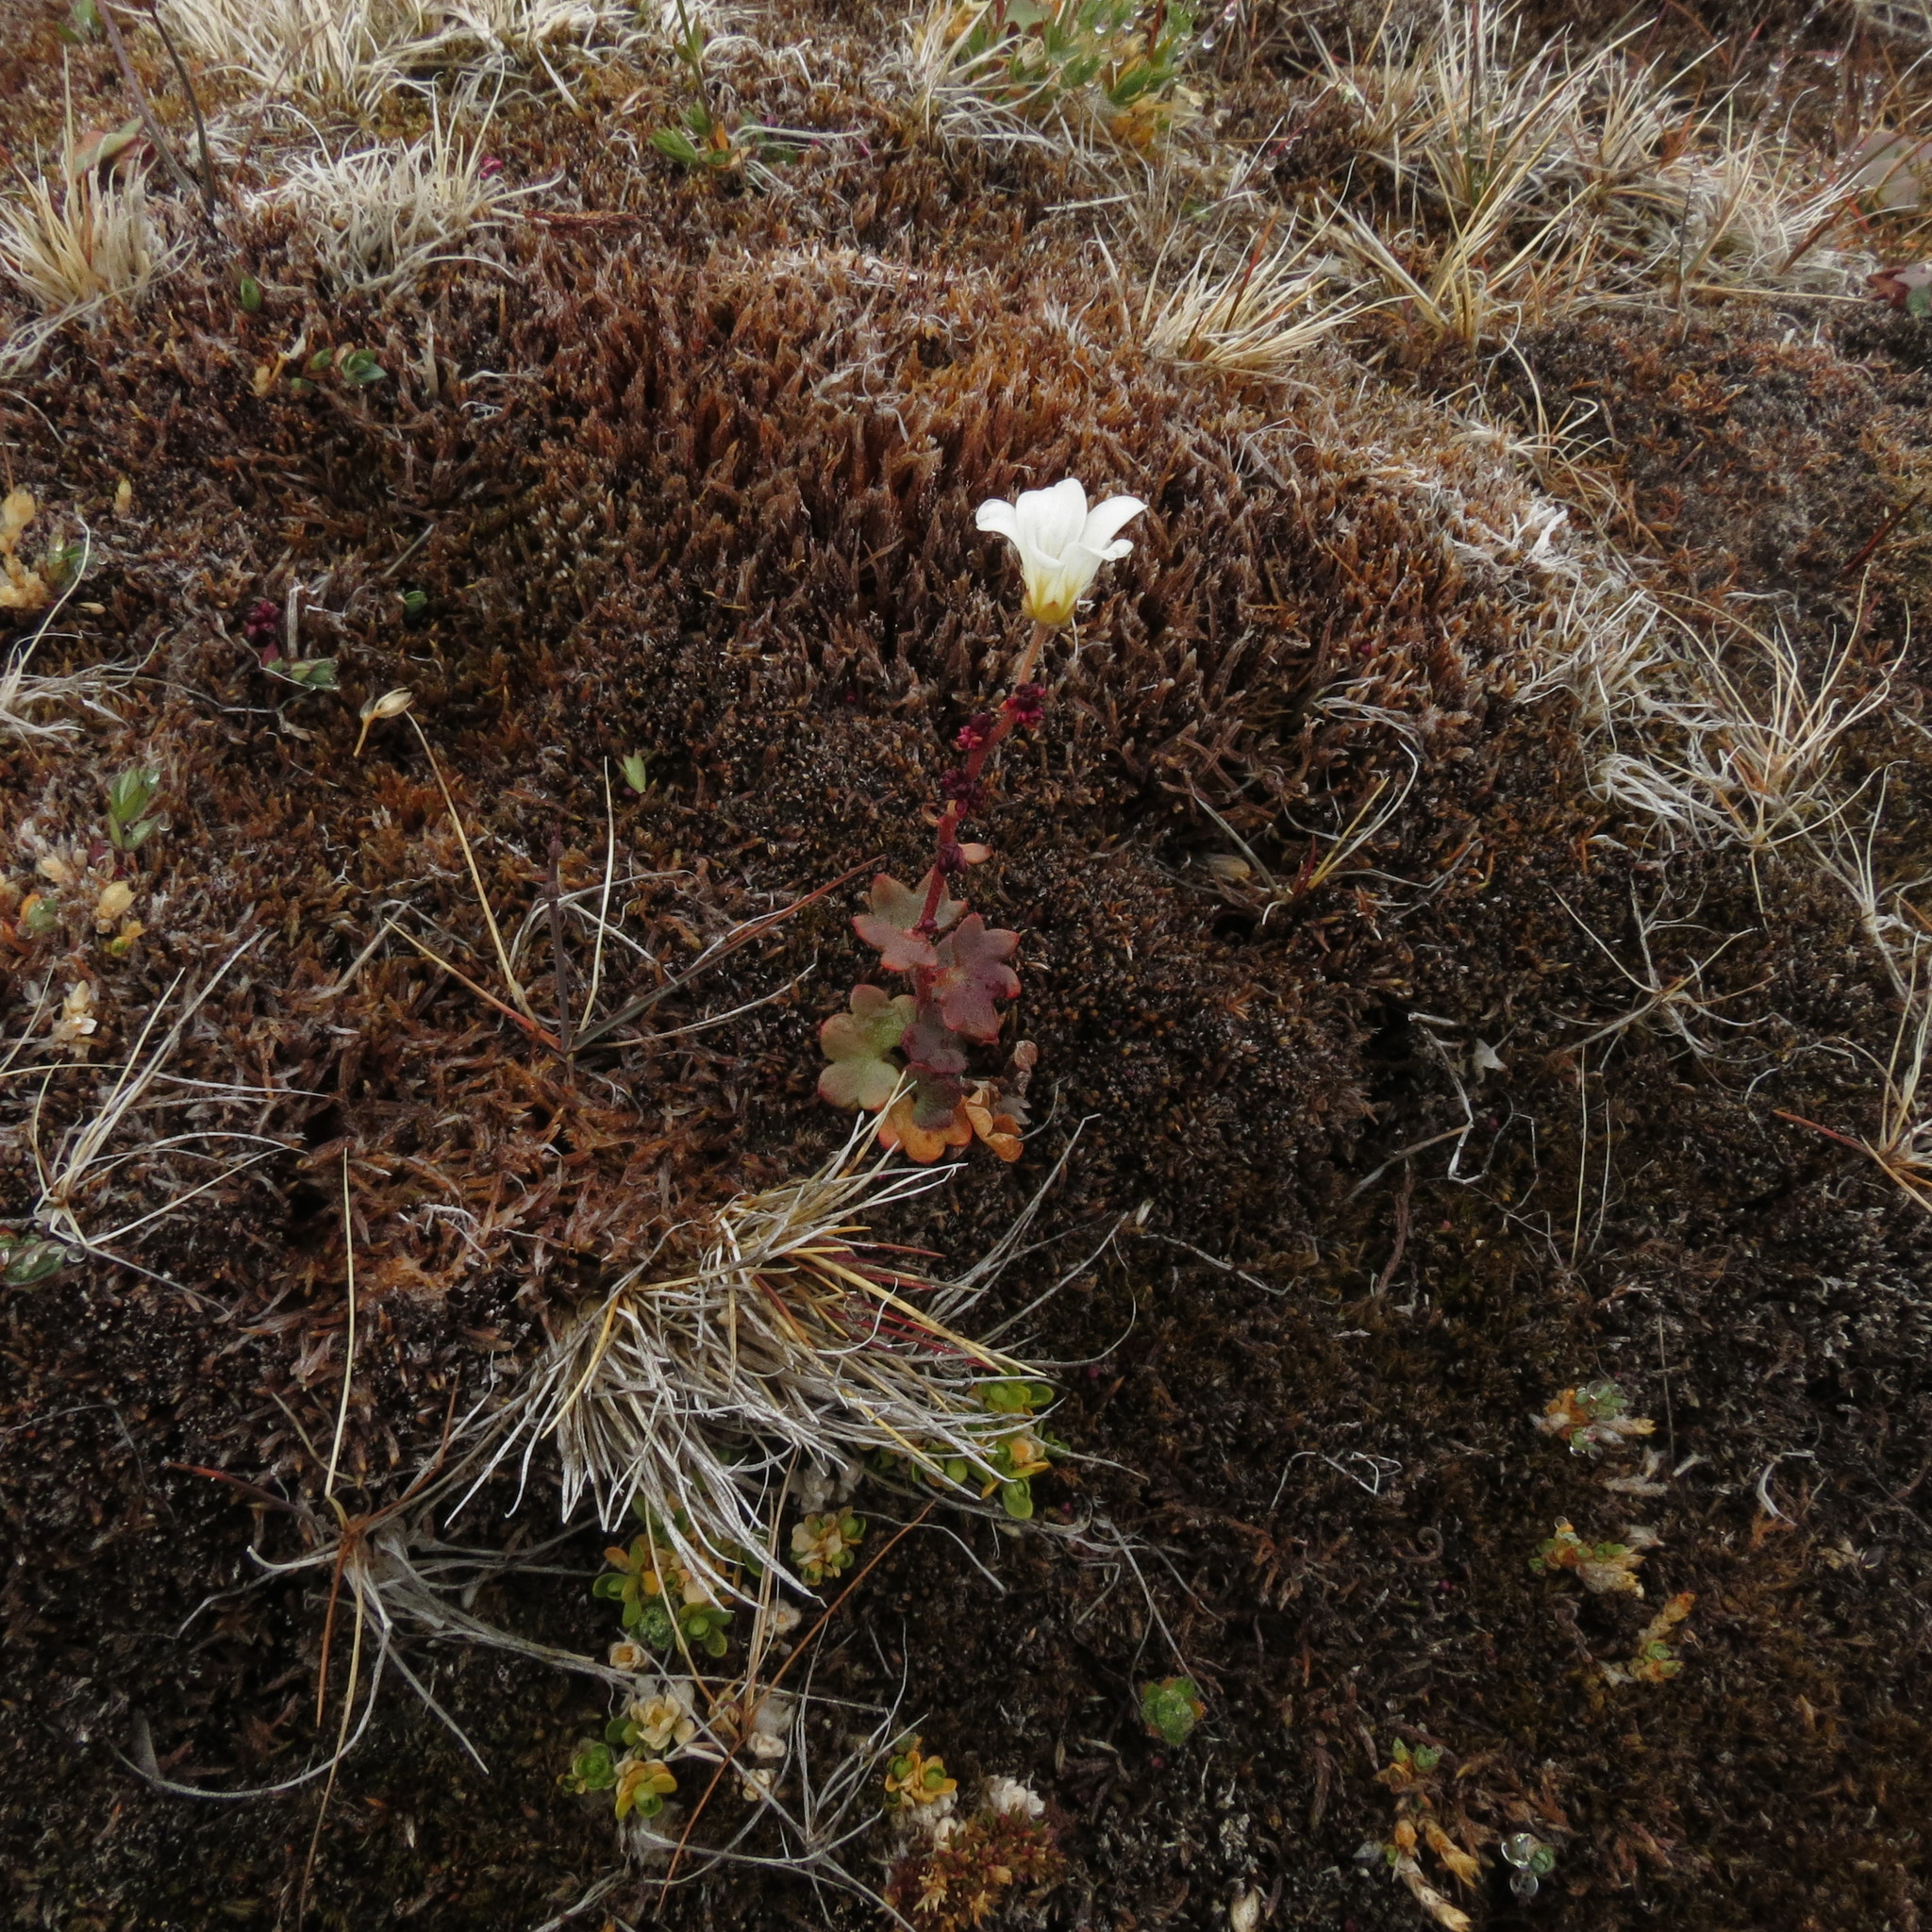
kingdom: Plantae
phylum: Tracheophyta
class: Magnoliopsida
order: Saxifragales
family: Saxifragaceae
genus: Saxifraga
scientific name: Saxifraga cernua
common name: Drooping saxifrage
